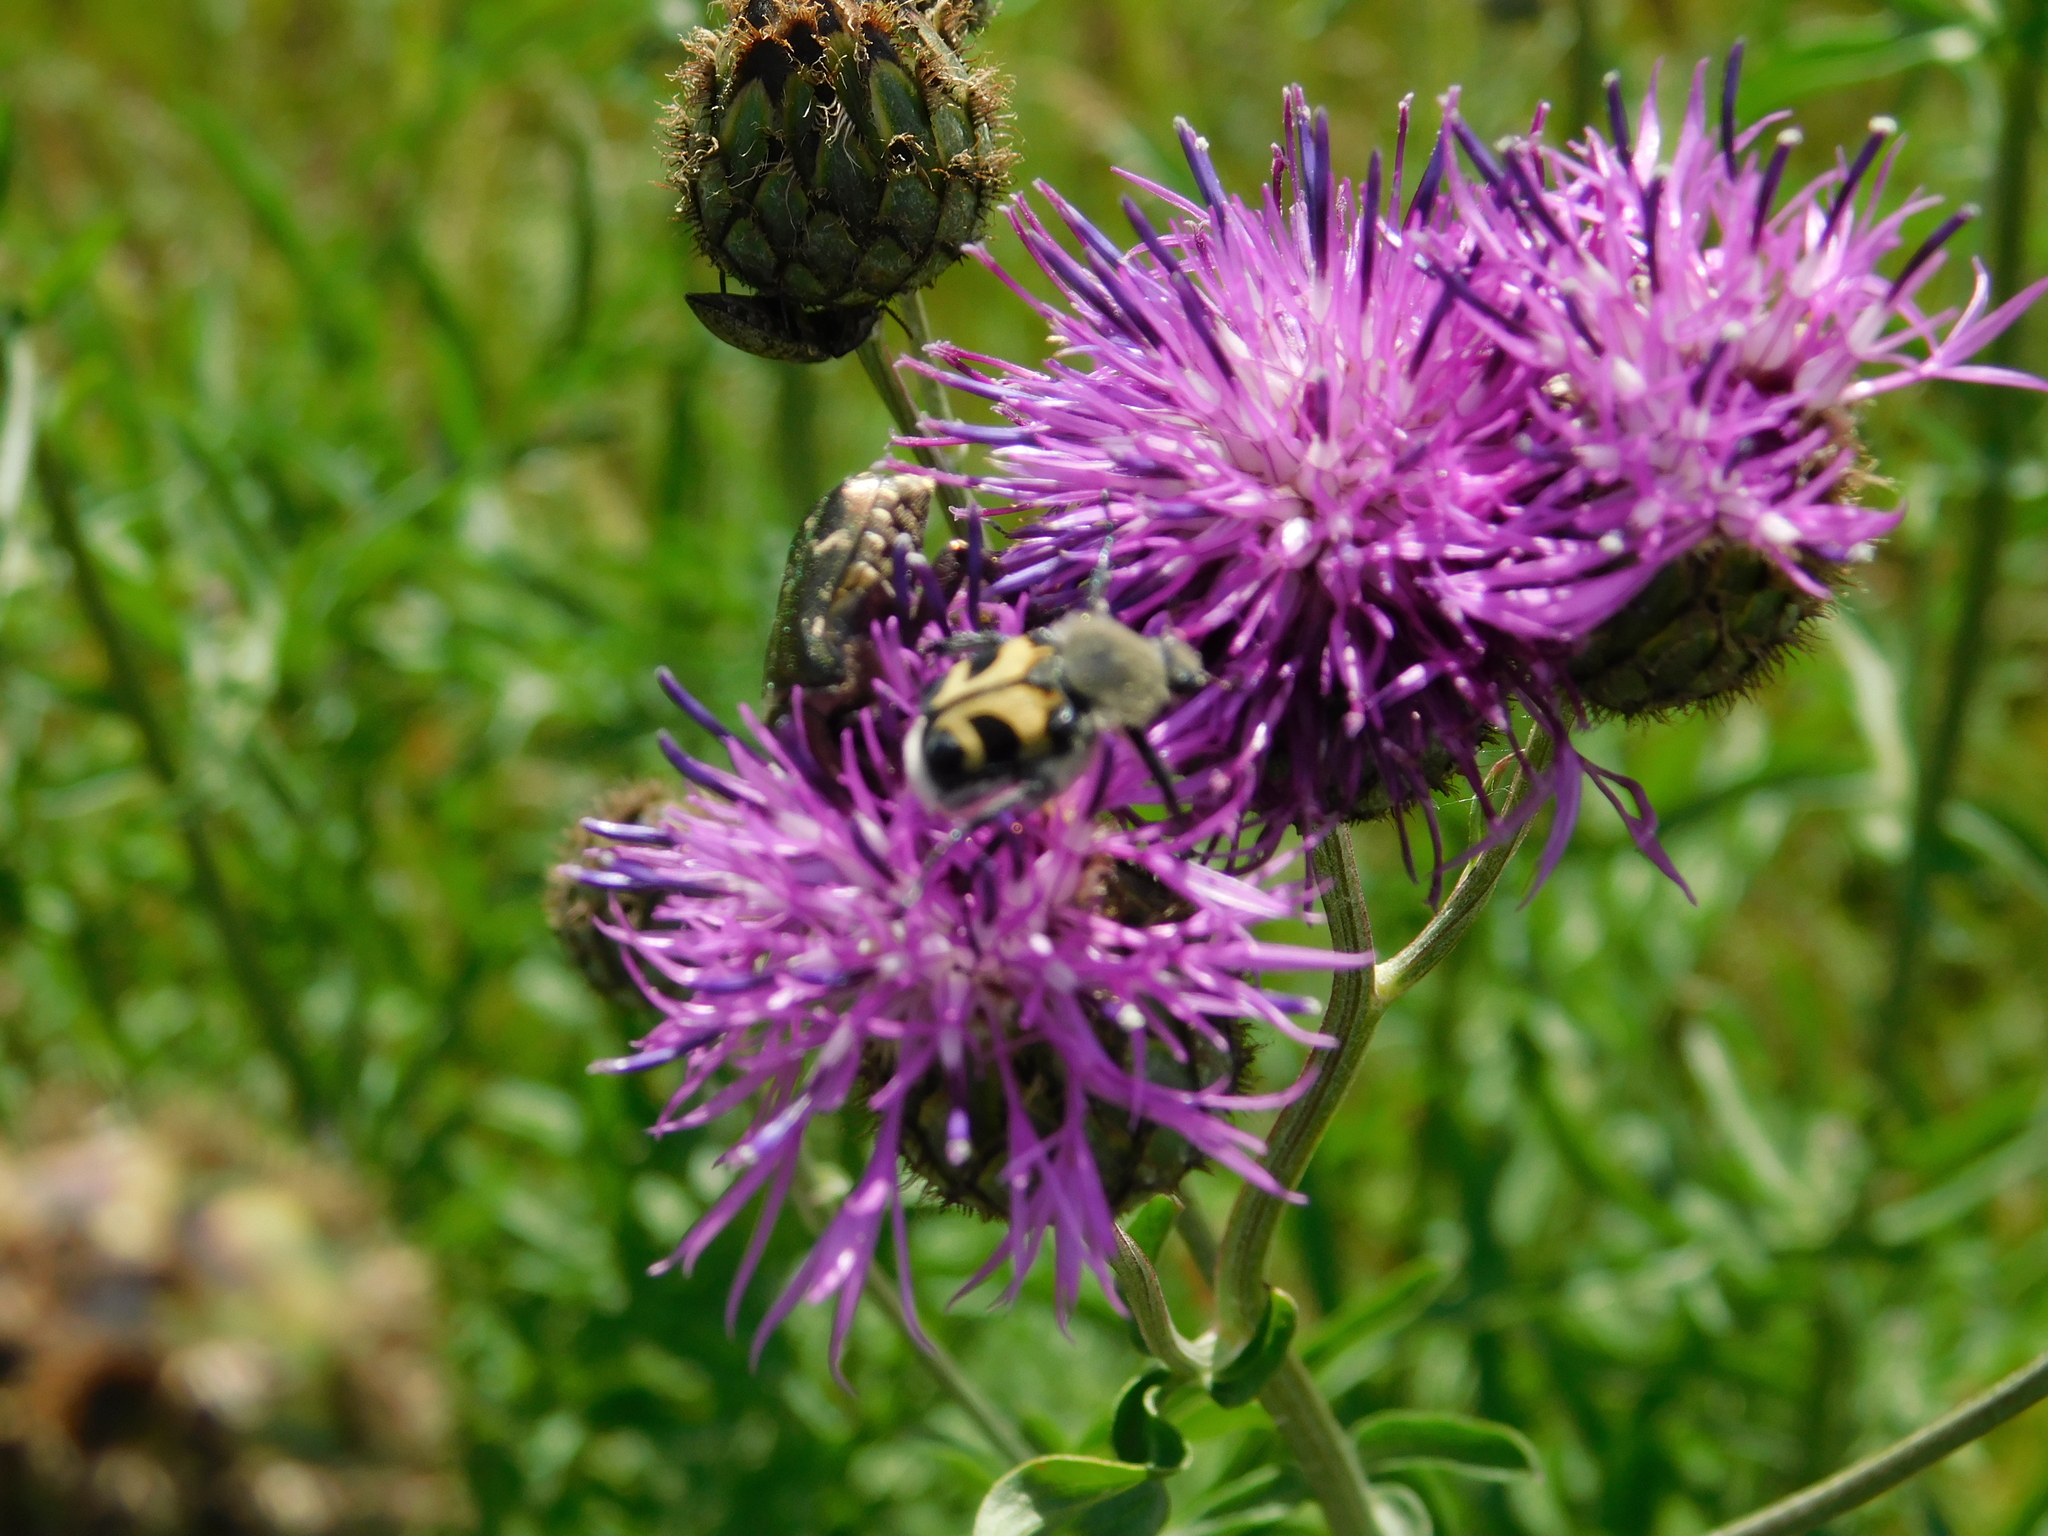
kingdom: Animalia
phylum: Arthropoda
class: Insecta
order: Coleoptera
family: Scarabaeidae
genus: Trichius
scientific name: Trichius fasciatus
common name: Bee beetle
